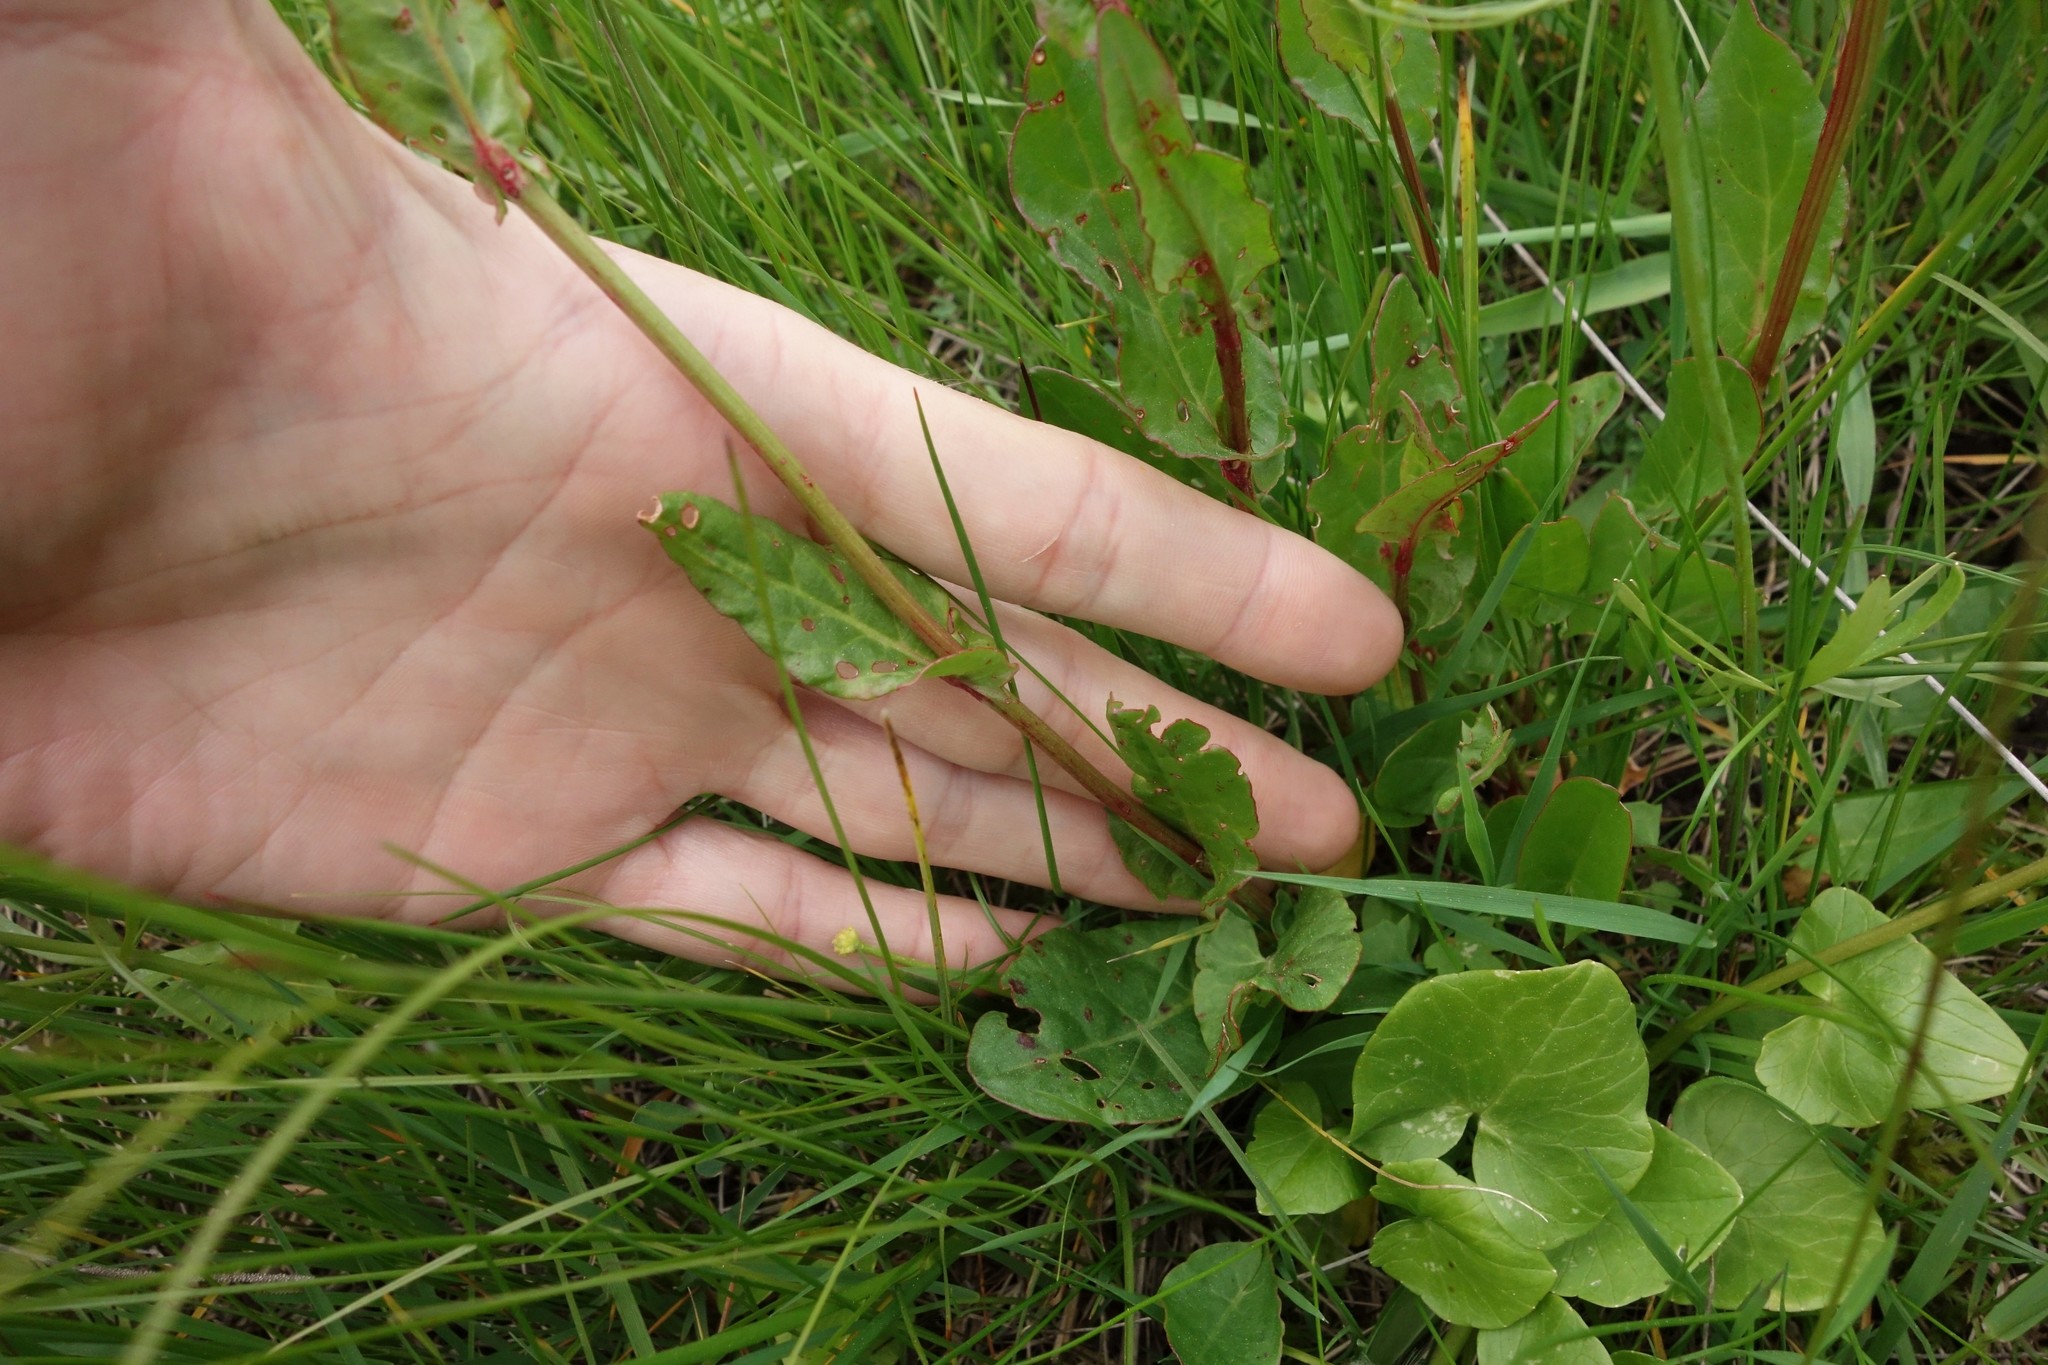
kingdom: Plantae
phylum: Tracheophyta
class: Magnoliopsida
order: Caryophyllales
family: Polygonaceae
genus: Rumex
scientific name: Rumex acetosa
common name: Garden sorrel
